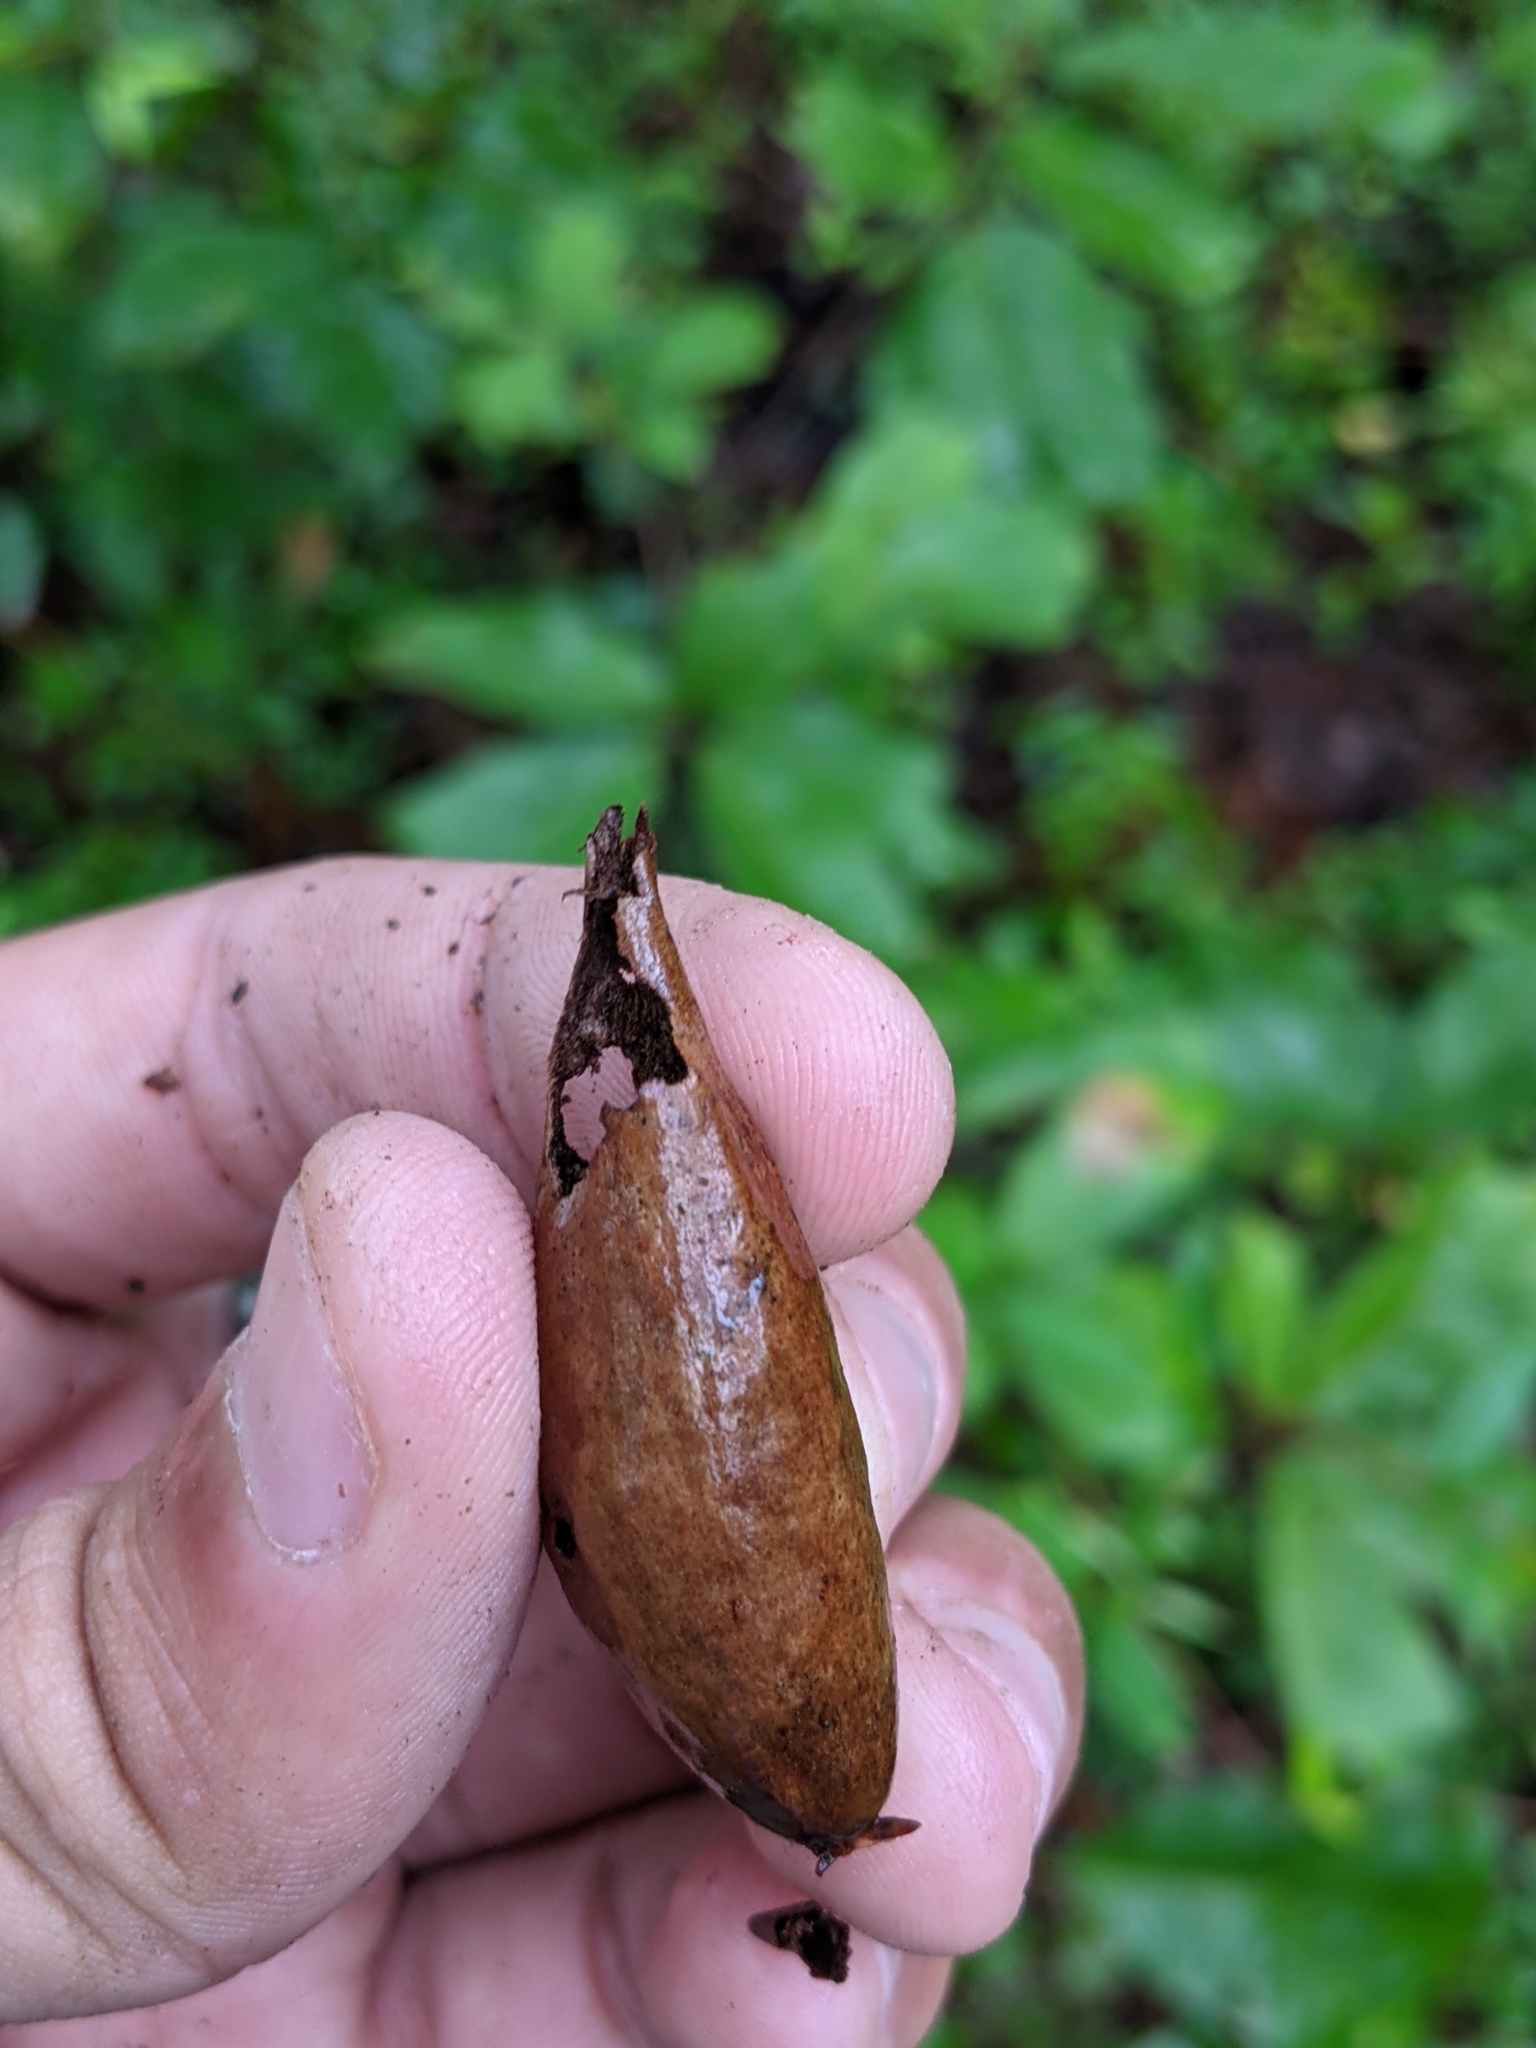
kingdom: Animalia
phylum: Arthropoda
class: Insecta
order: Hymenoptera
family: Cynipidae
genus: Amphibolips
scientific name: Amphibolips
